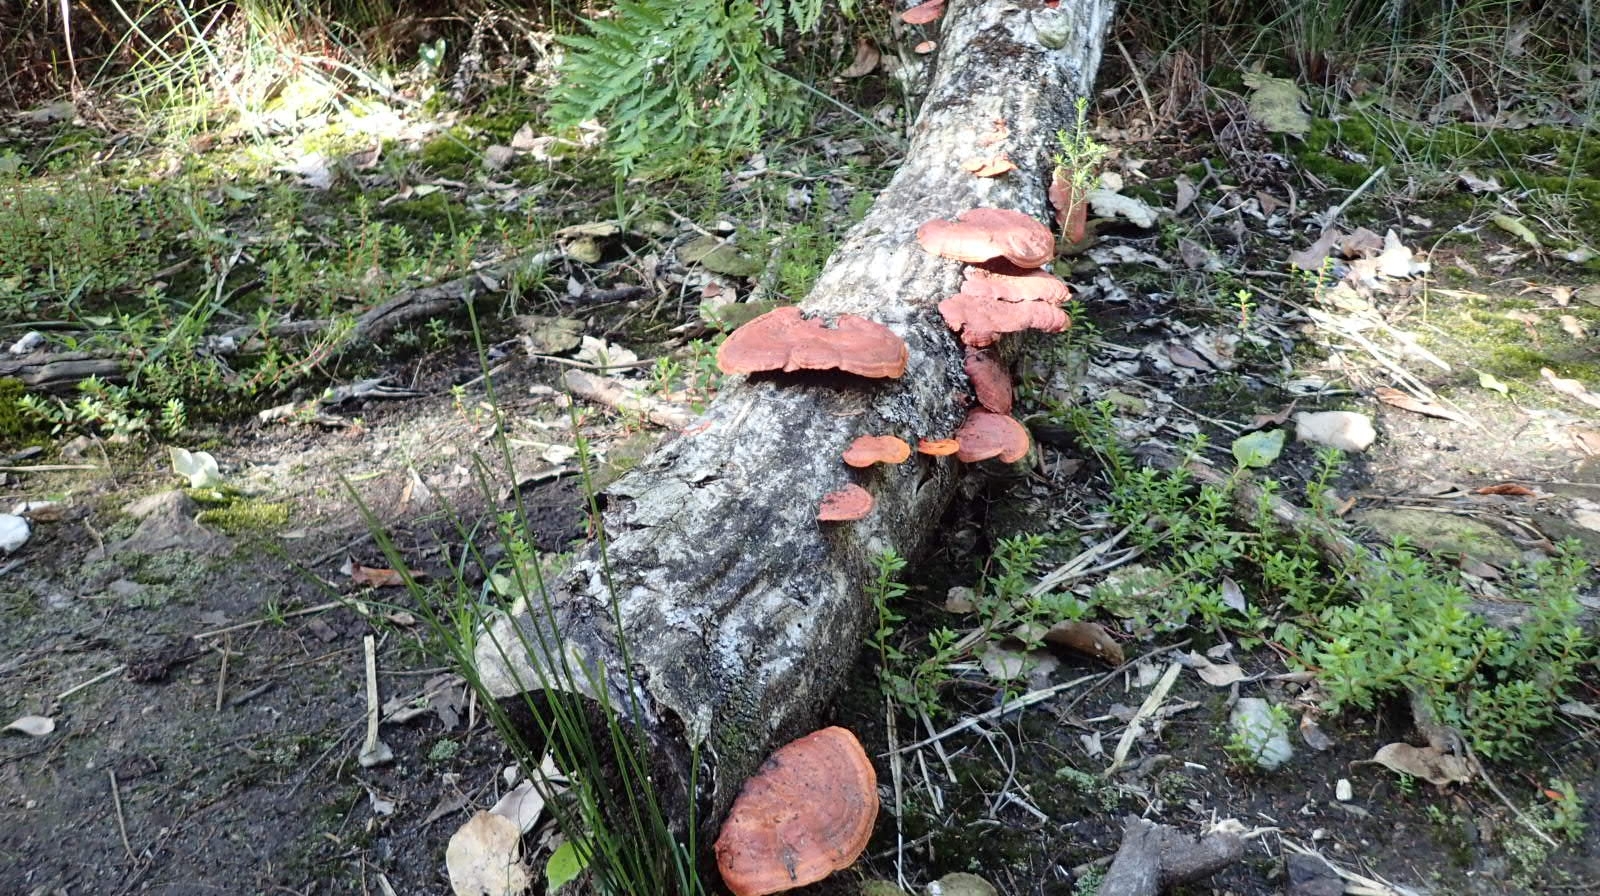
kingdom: Fungi
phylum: Basidiomycota
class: Agaricomycetes
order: Polyporales
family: Polyporaceae
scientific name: Polyporaceae
